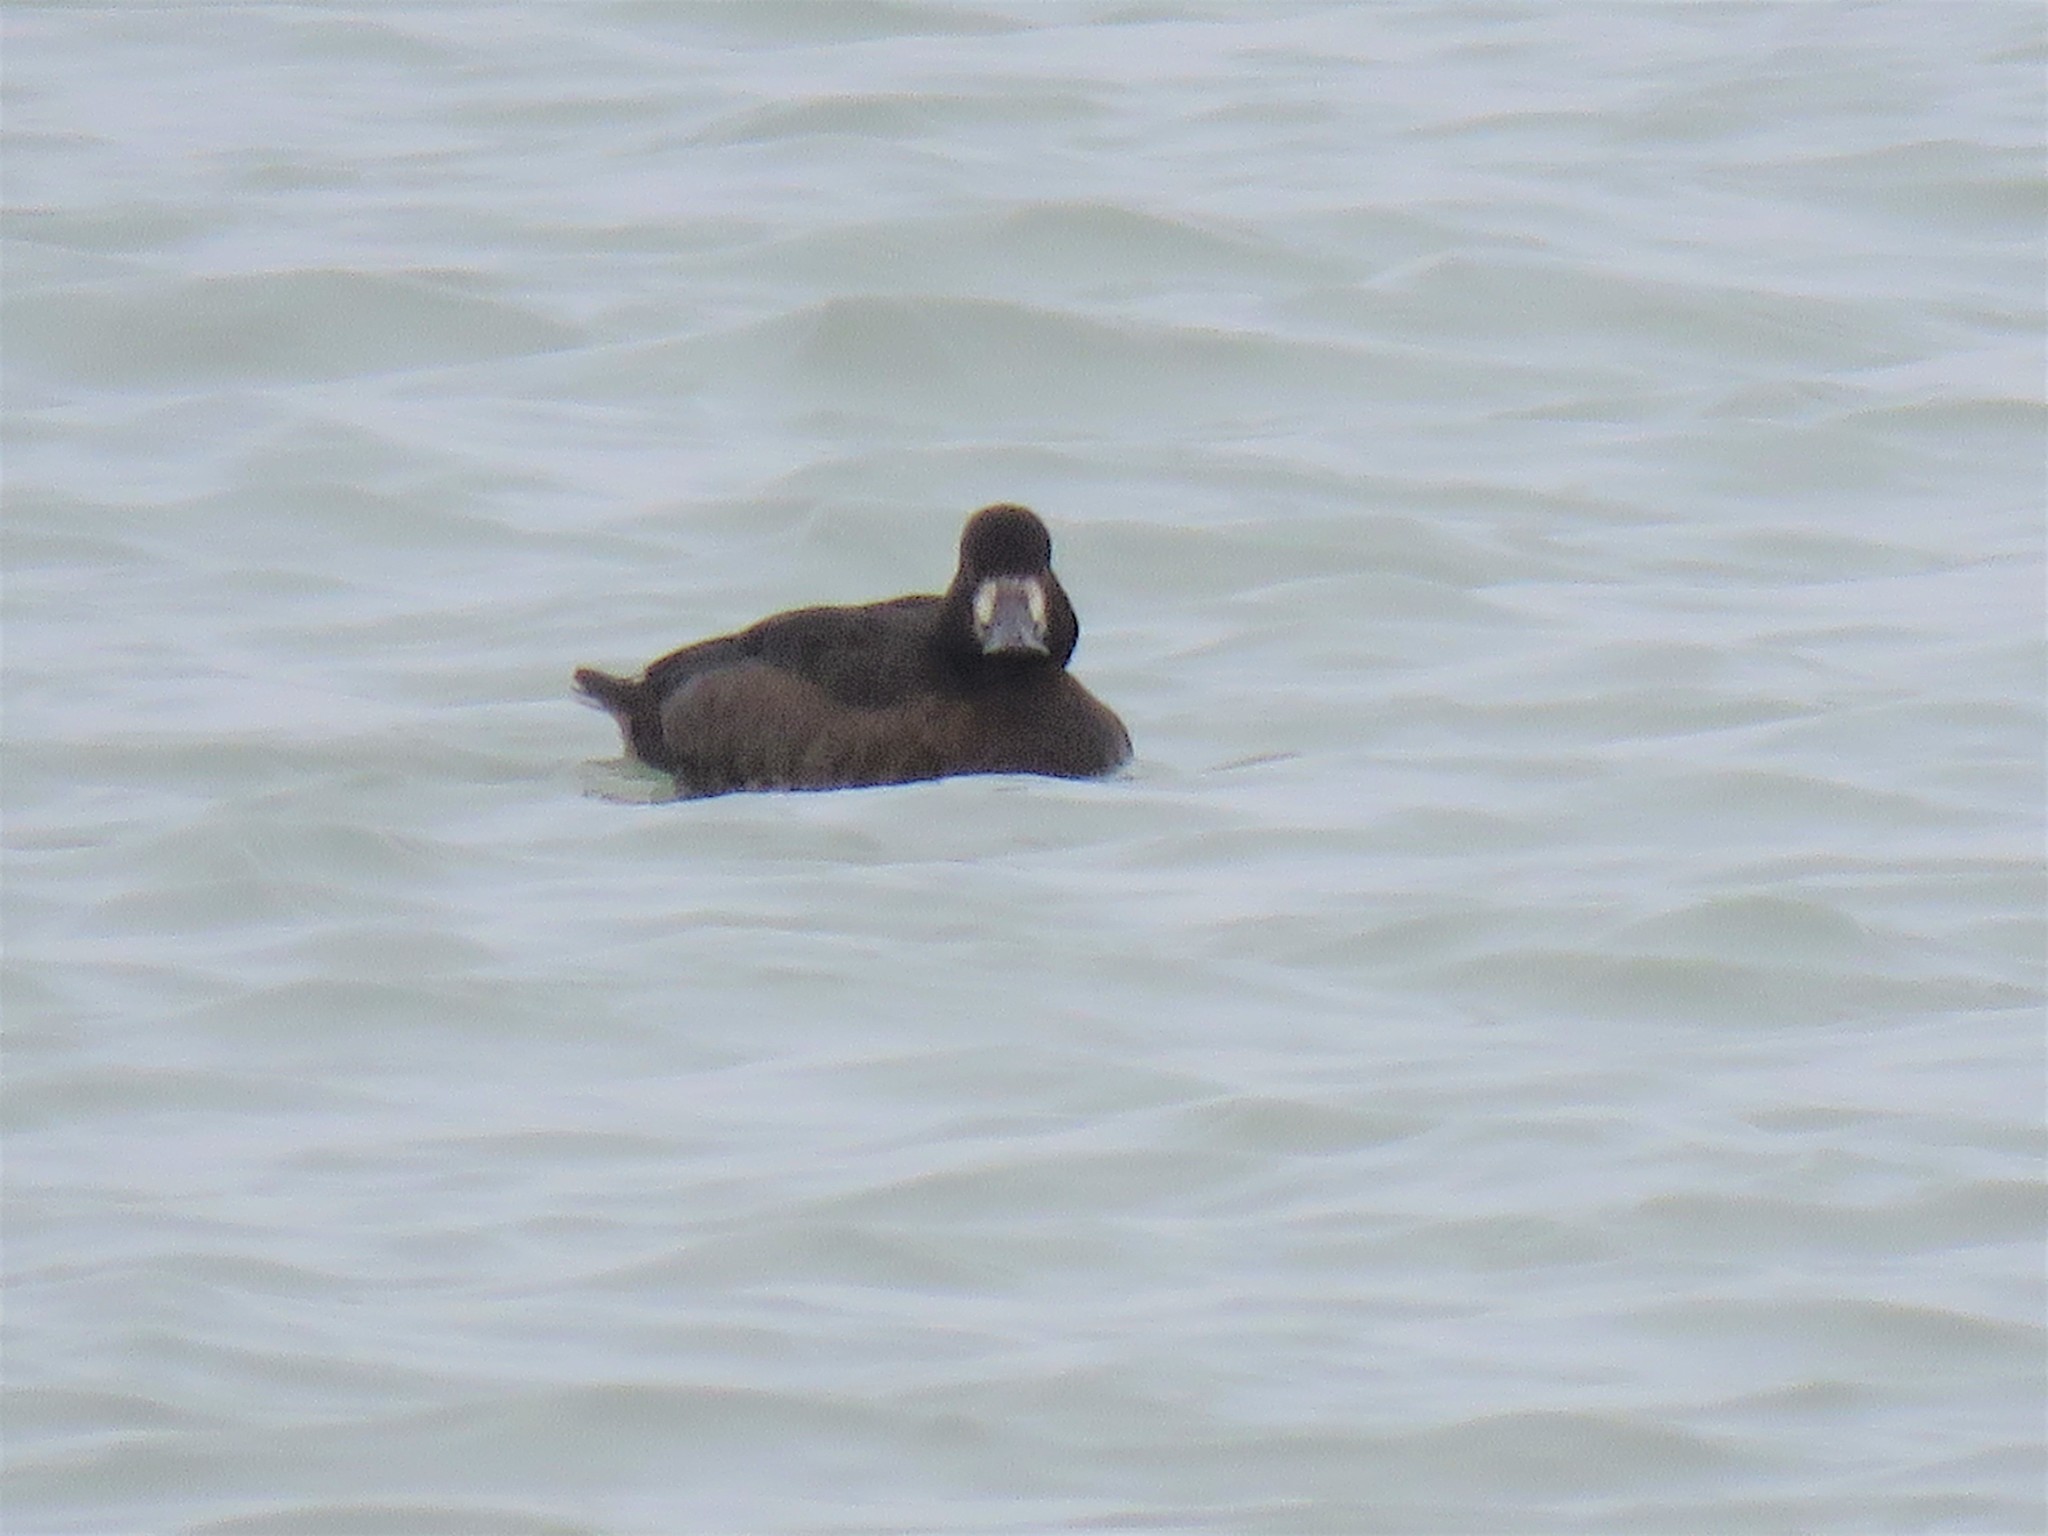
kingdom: Animalia
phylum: Chordata
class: Aves
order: Anseriformes
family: Anatidae
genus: Aythya
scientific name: Aythya affinis
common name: Lesser scaup
